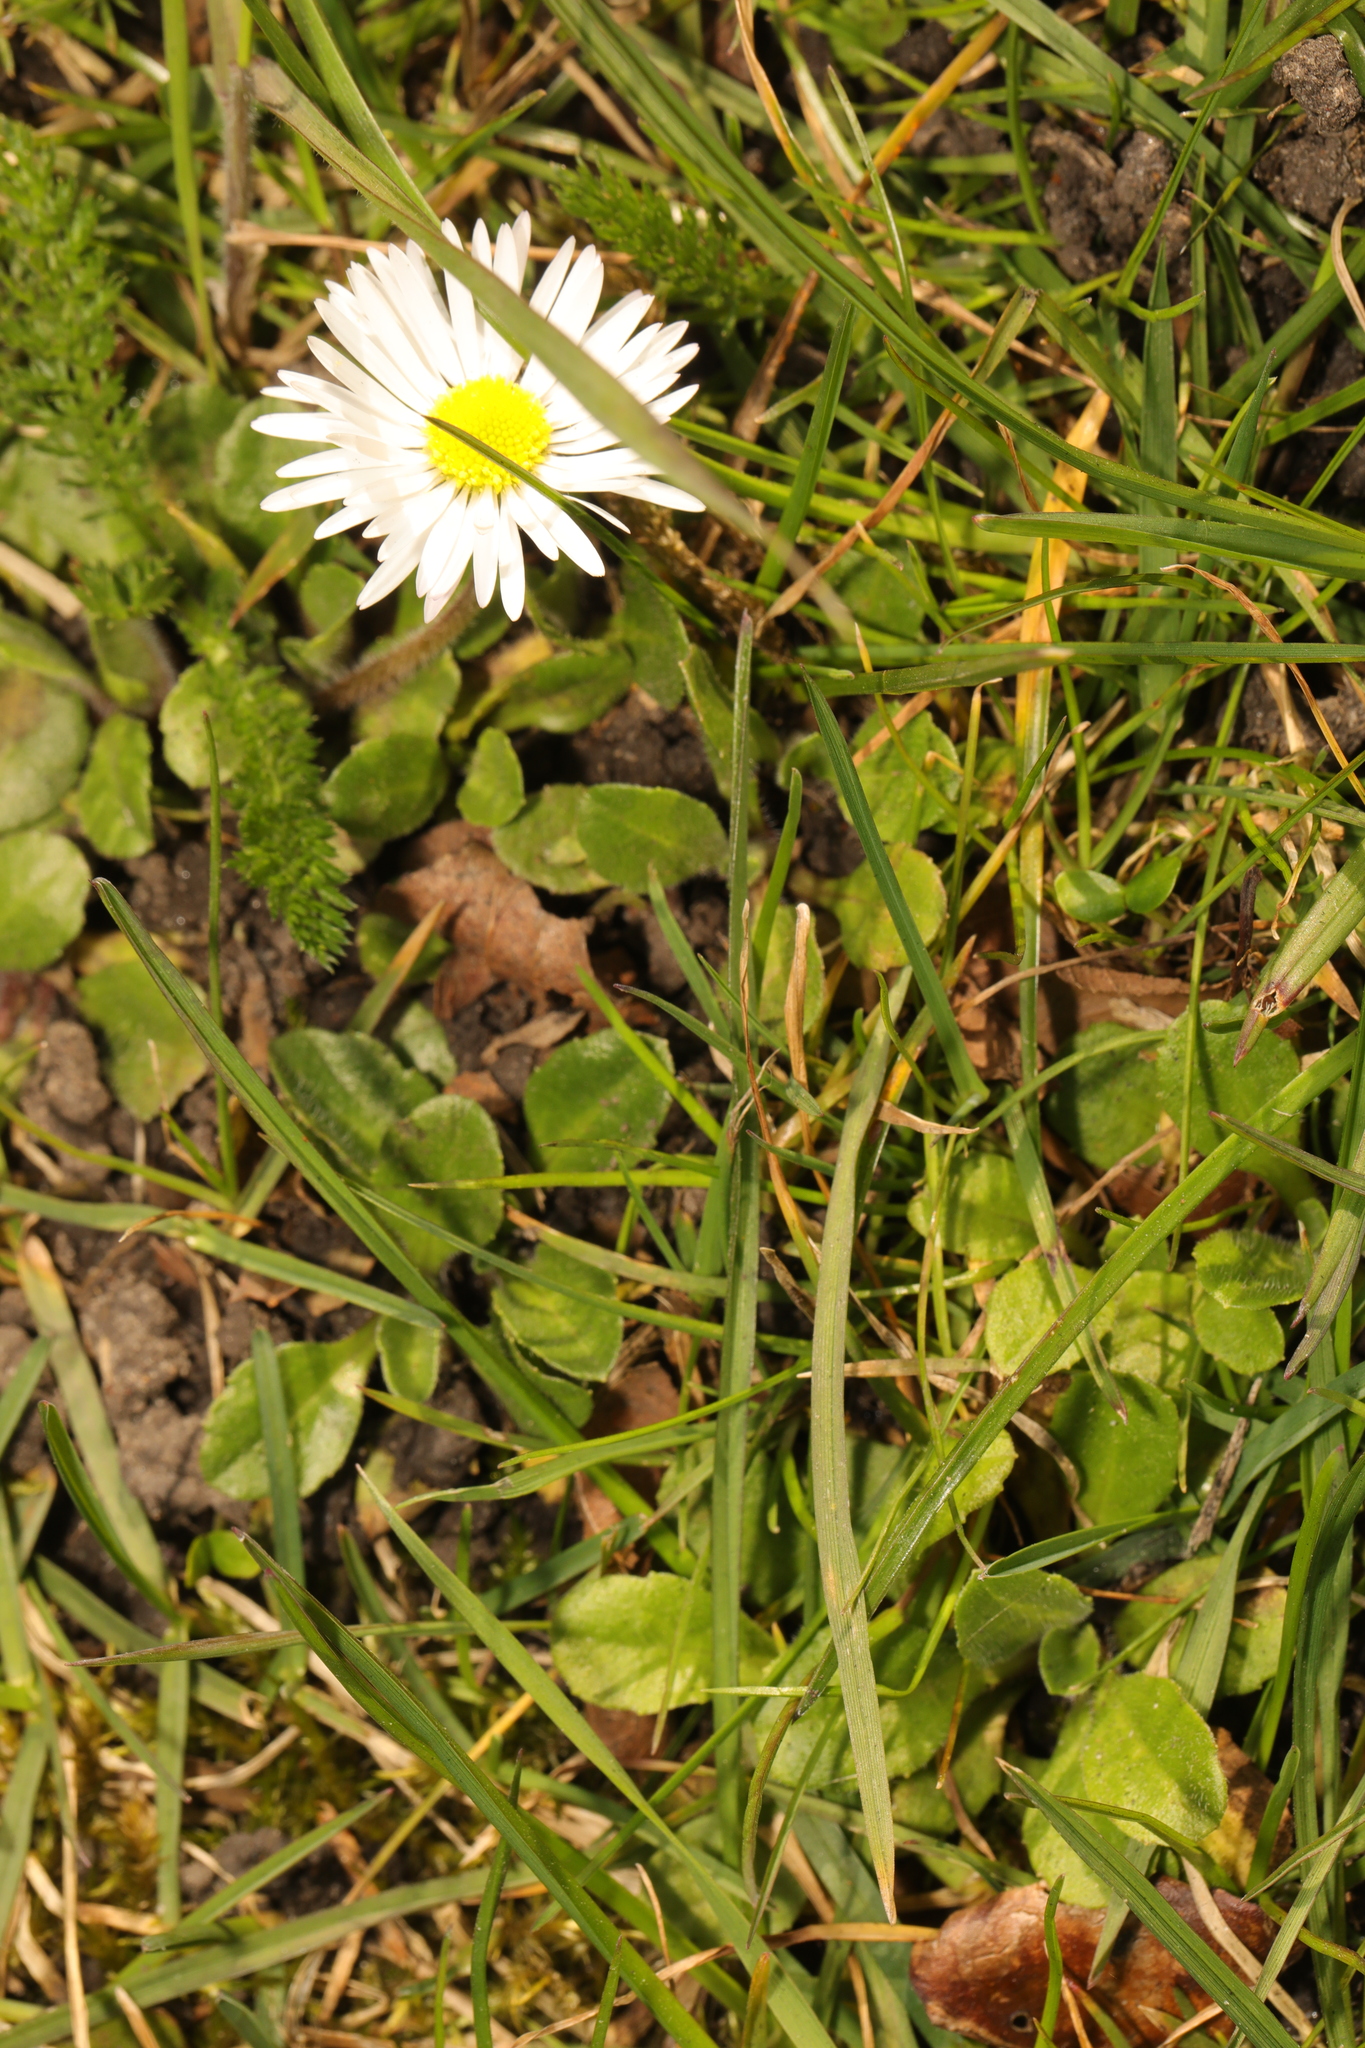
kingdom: Plantae
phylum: Tracheophyta
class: Magnoliopsida
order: Asterales
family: Asteraceae
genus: Bellis
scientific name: Bellis perennis
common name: Lawndaisy
